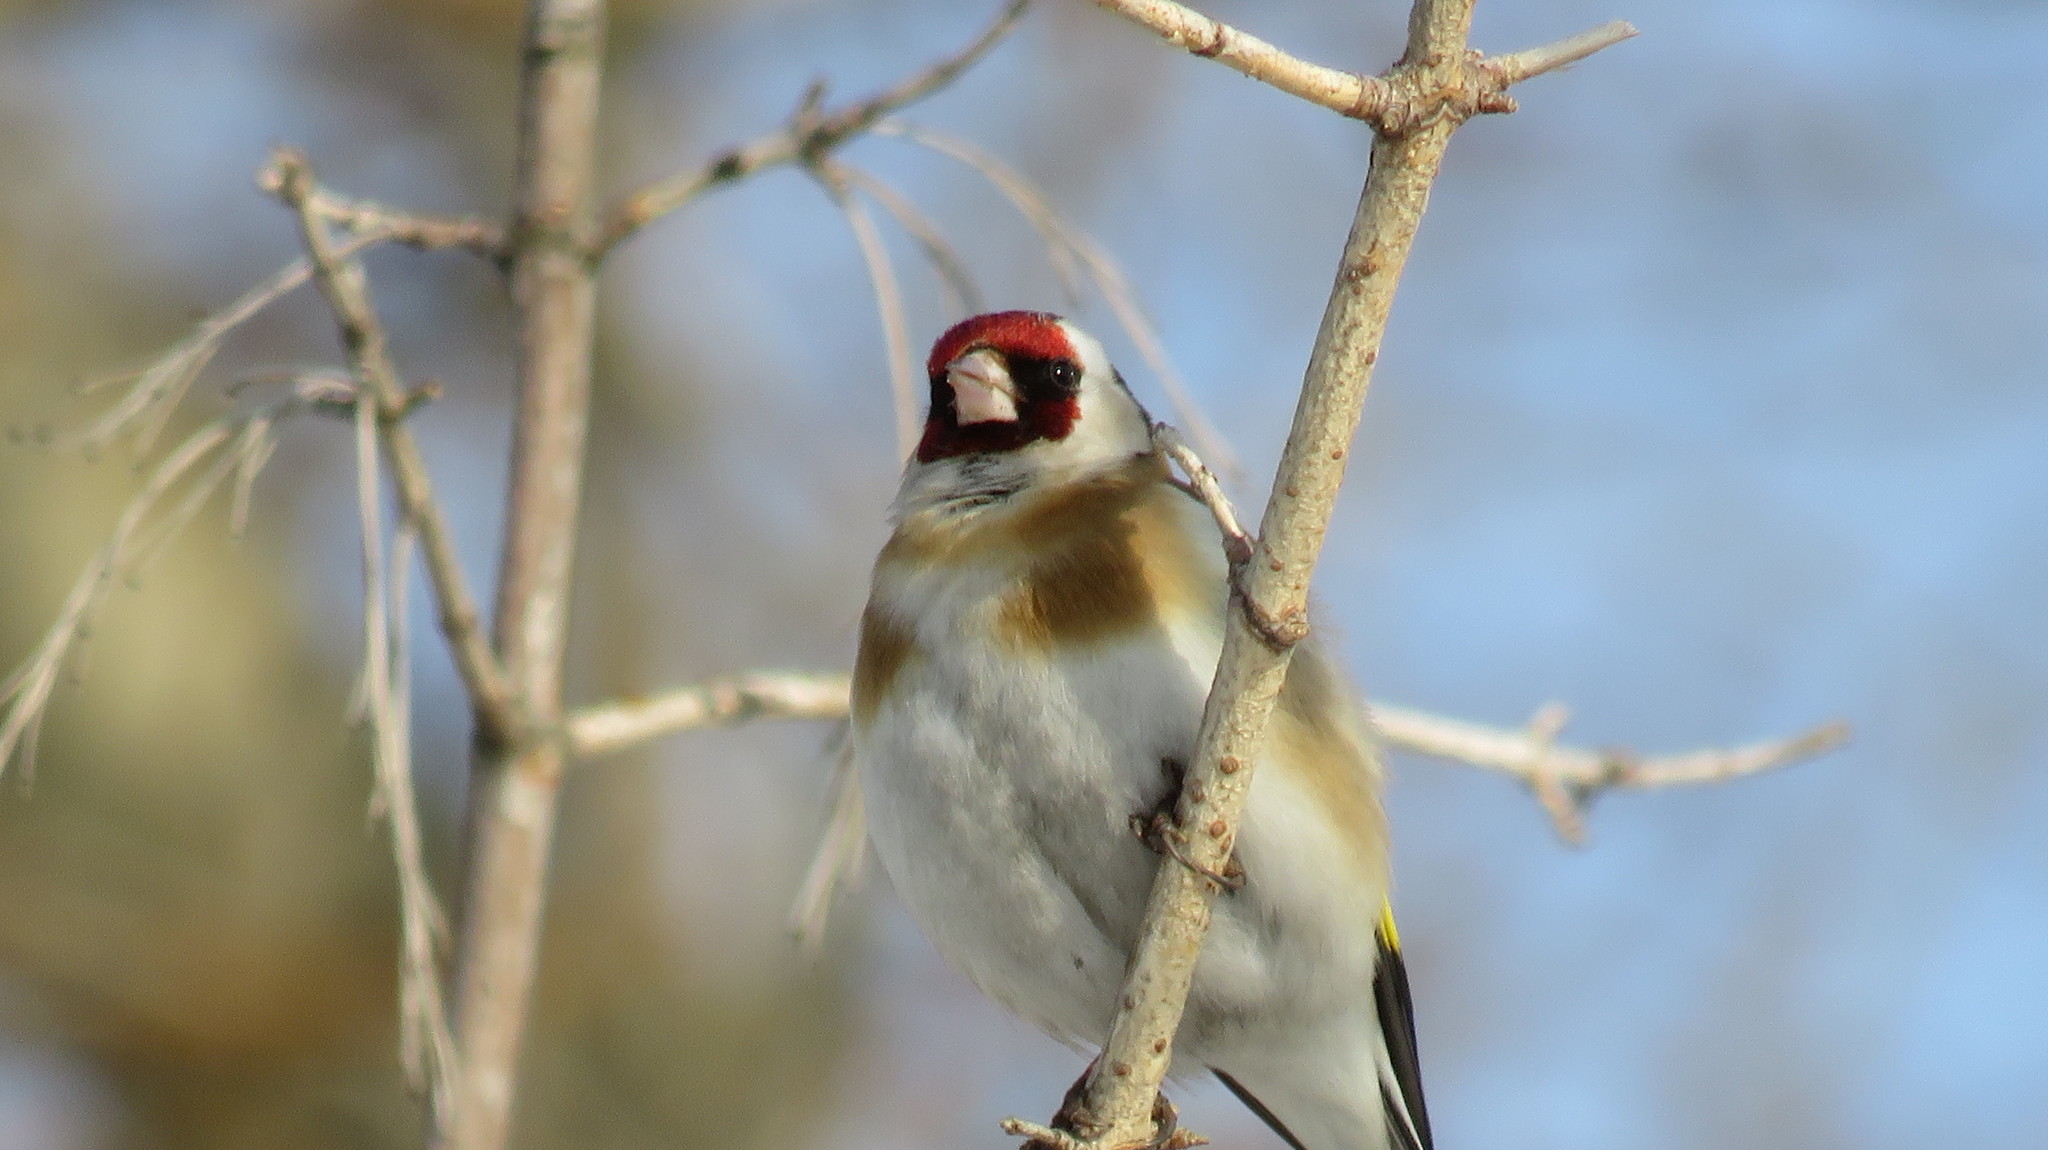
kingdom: Animalia
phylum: Chordata
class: Aves
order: Passeriformes
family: Fringillidae
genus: Carduelis
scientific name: Carduelis carduelis
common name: European goldfinch
